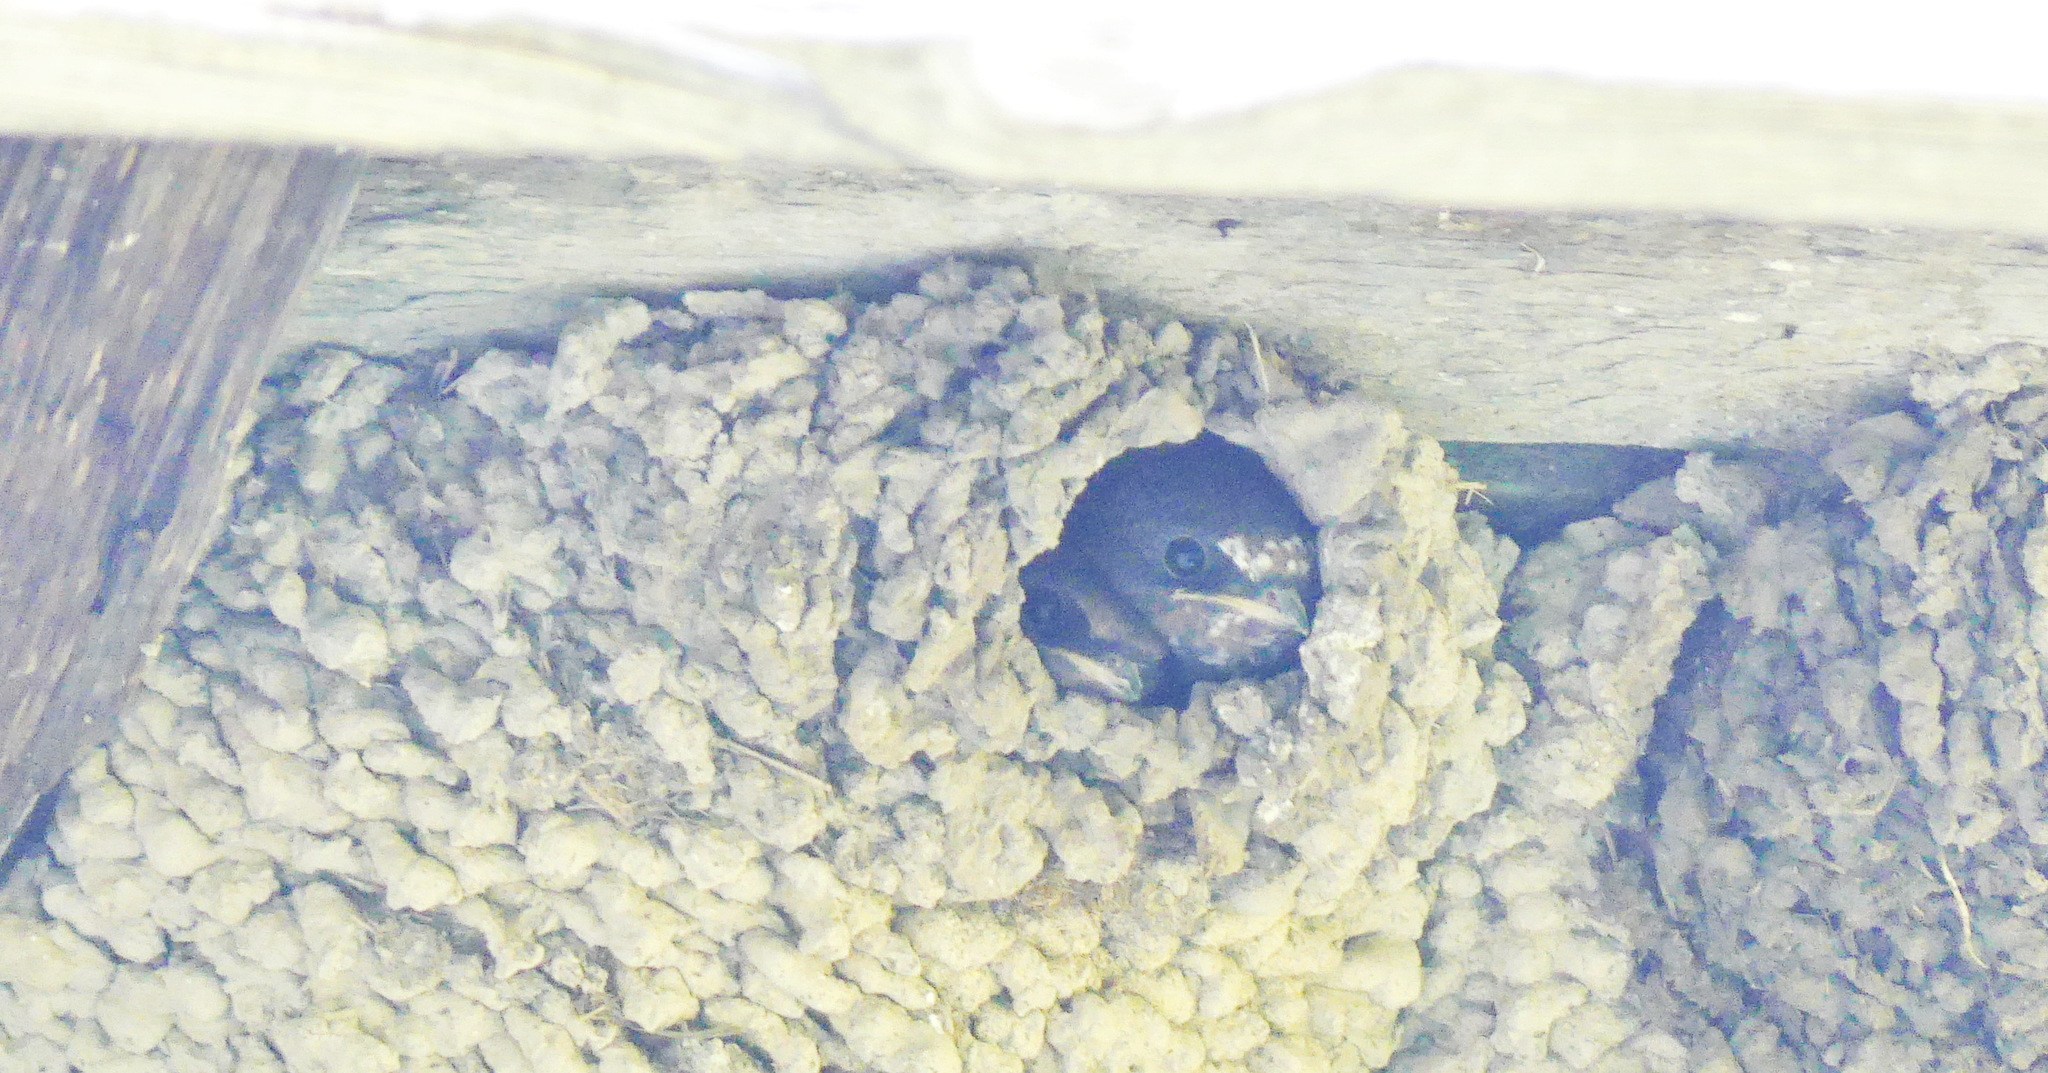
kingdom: Animalia
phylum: Chordata
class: Aves
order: Passeriformes
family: Hirundinidae
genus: Petrochelidon
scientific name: Petrochelidon pyrrhonota
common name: American cliff swallow
